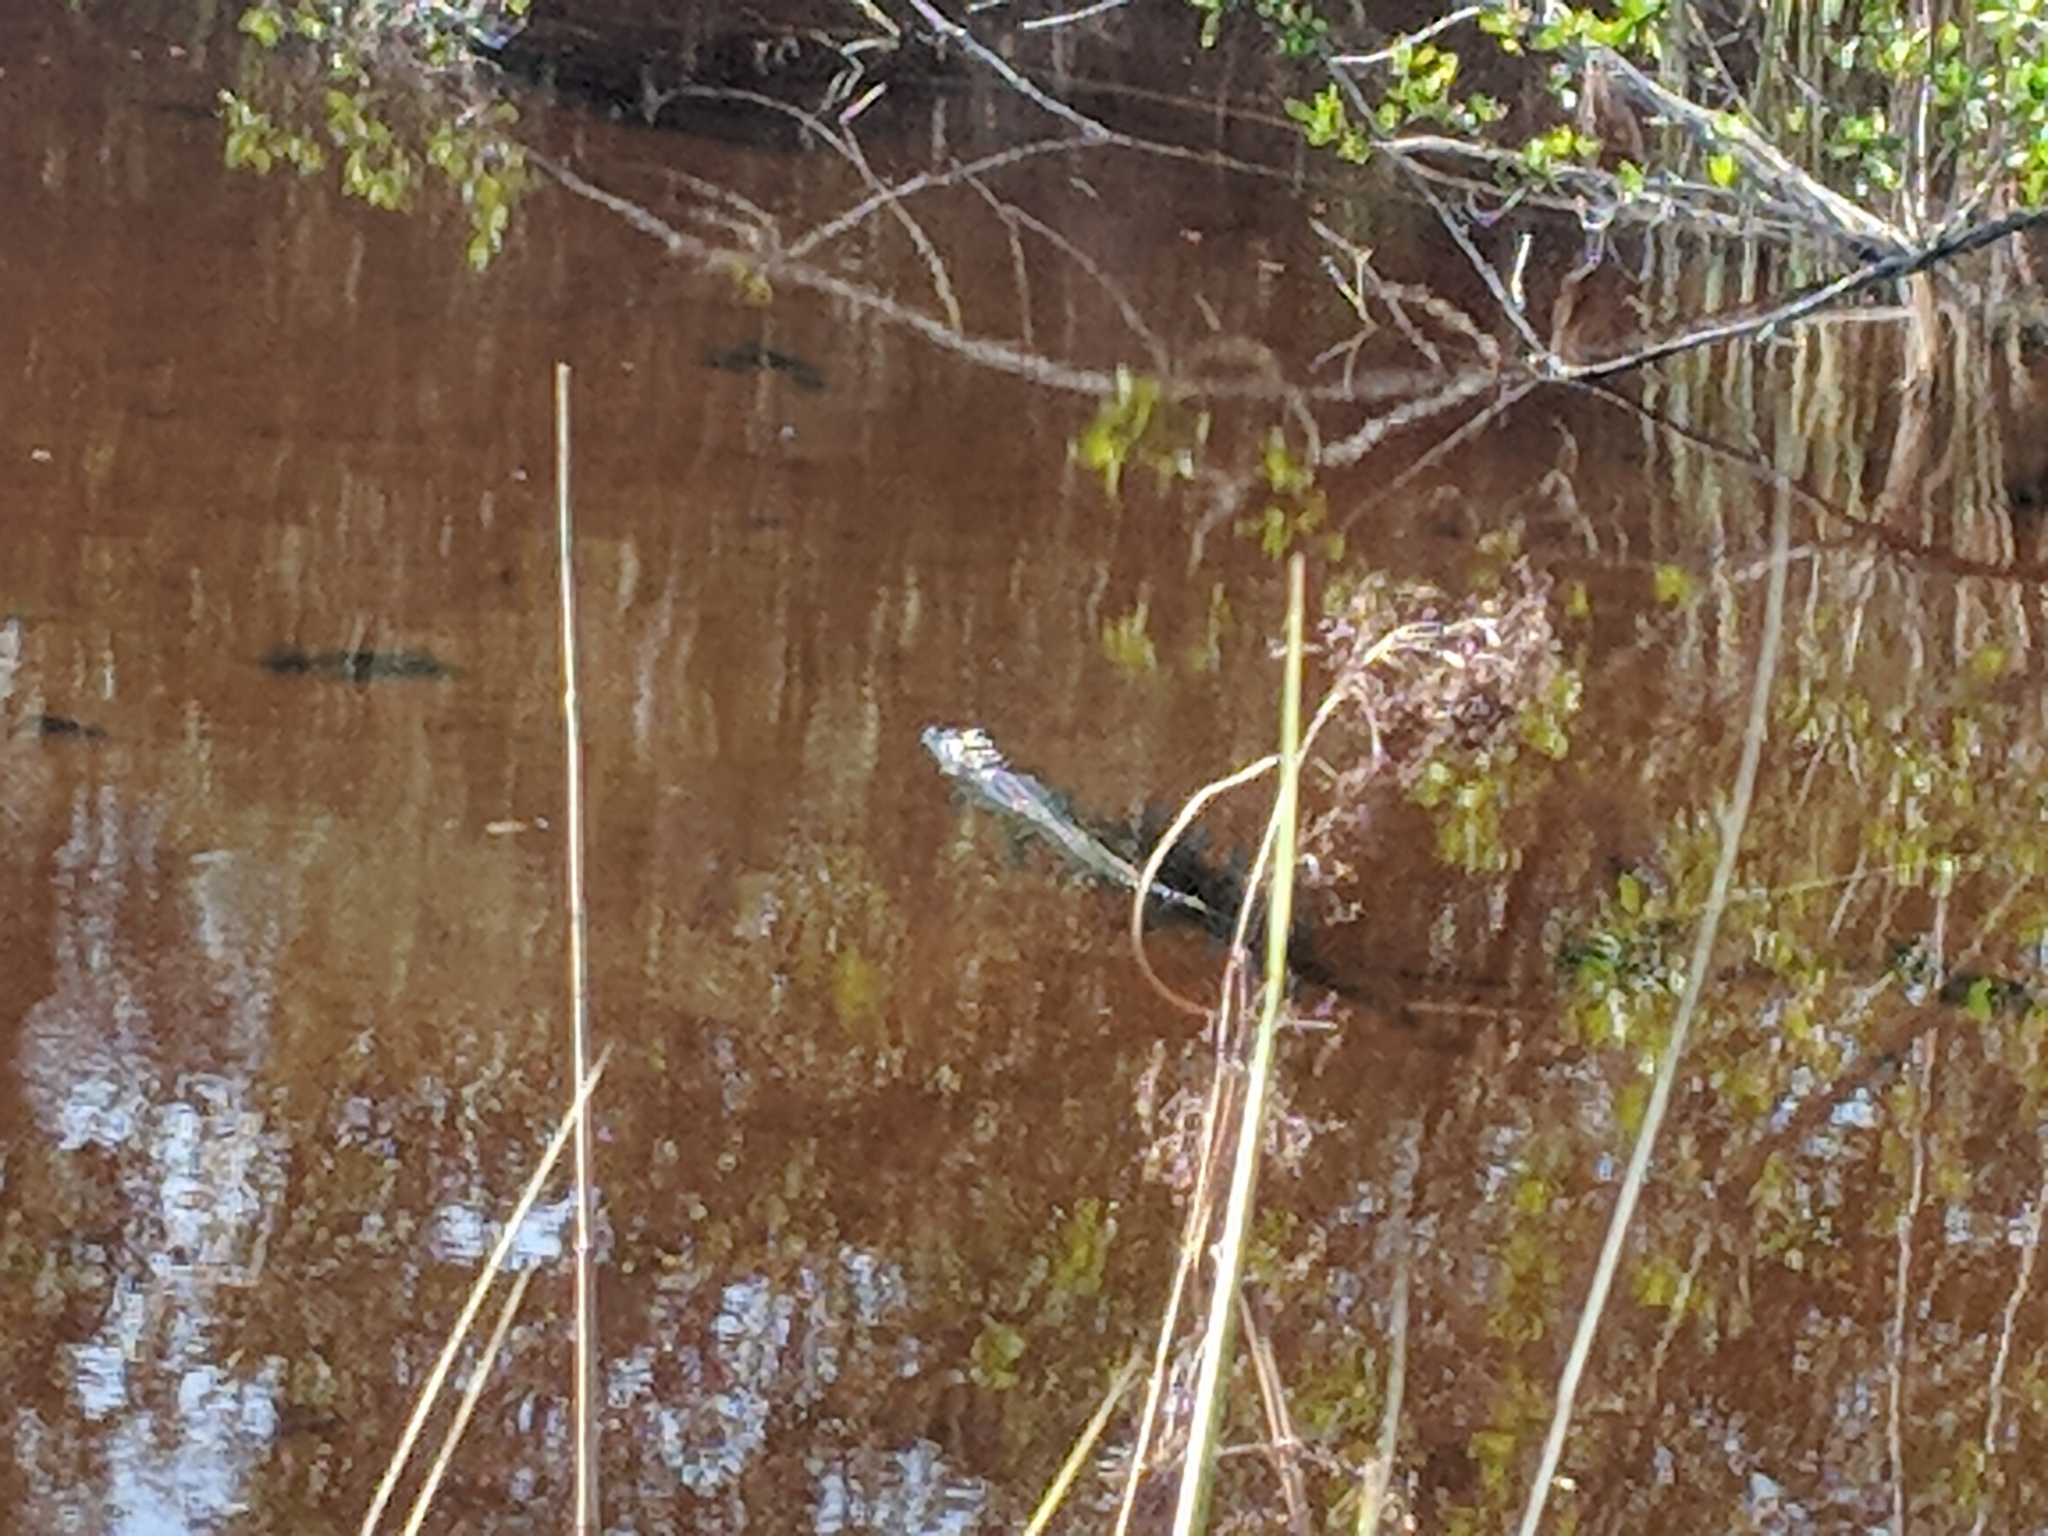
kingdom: Animalia
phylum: Chordata
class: Crocodylia
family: Alligatoridae
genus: Alligator
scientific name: Alligator mississippiensis
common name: American alligator
